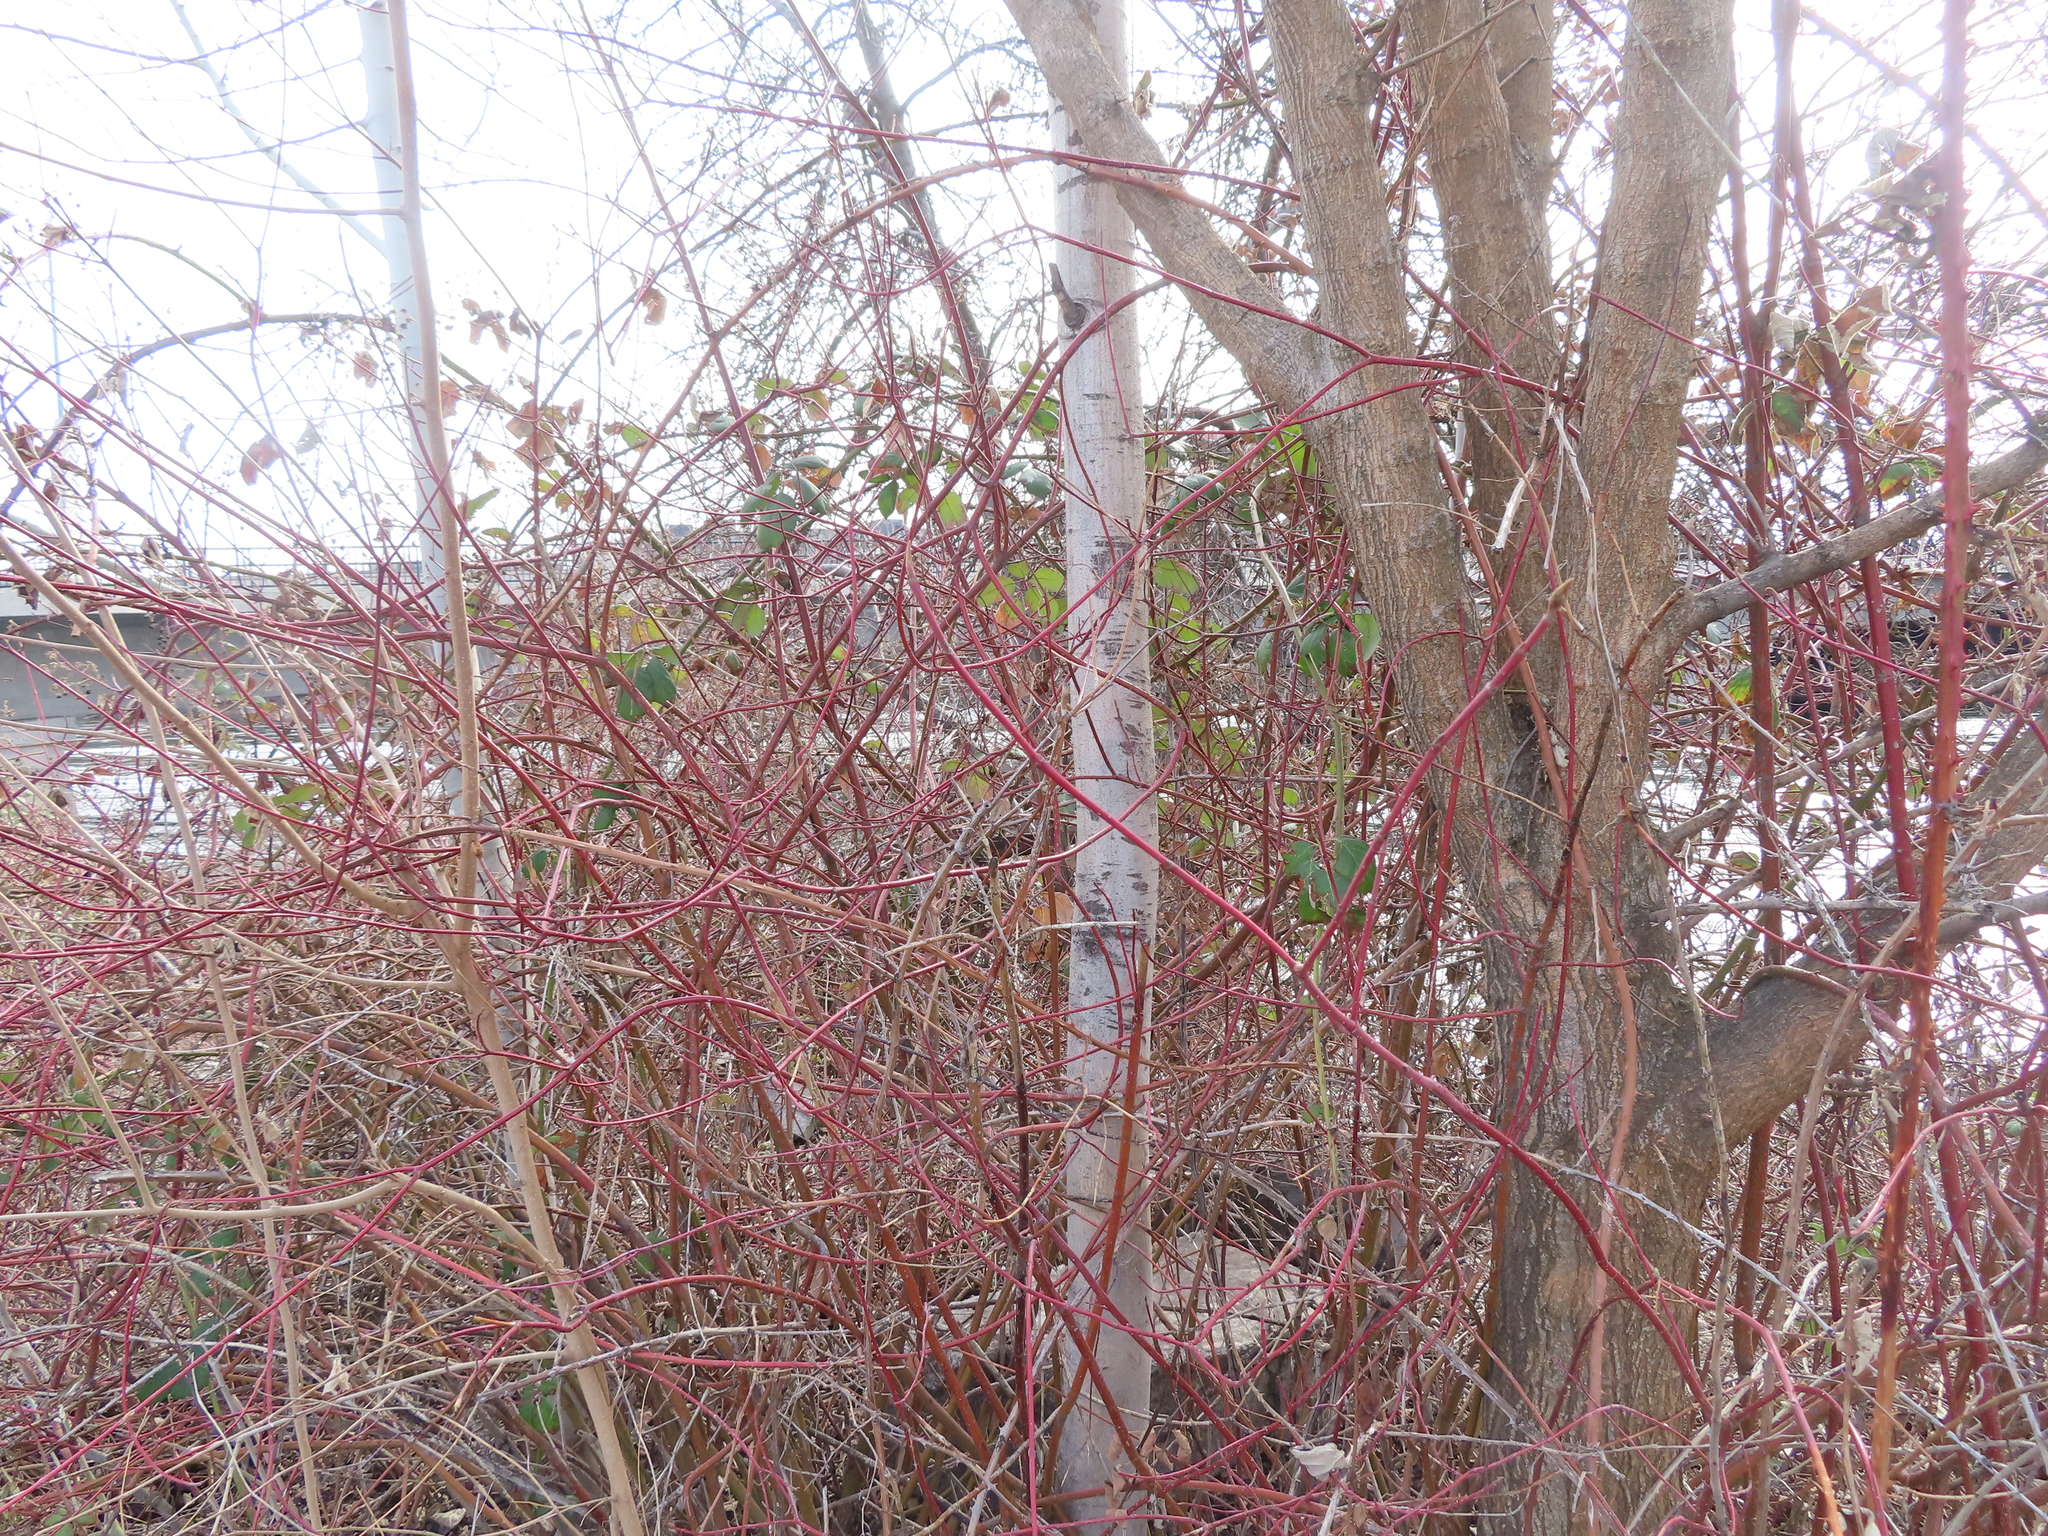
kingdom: Plantae
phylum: Tracheophyta
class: Magnoliopsida
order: Malpighiales
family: Salicaceae
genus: Populus
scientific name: Populus tremuloides
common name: Quaking aspen
